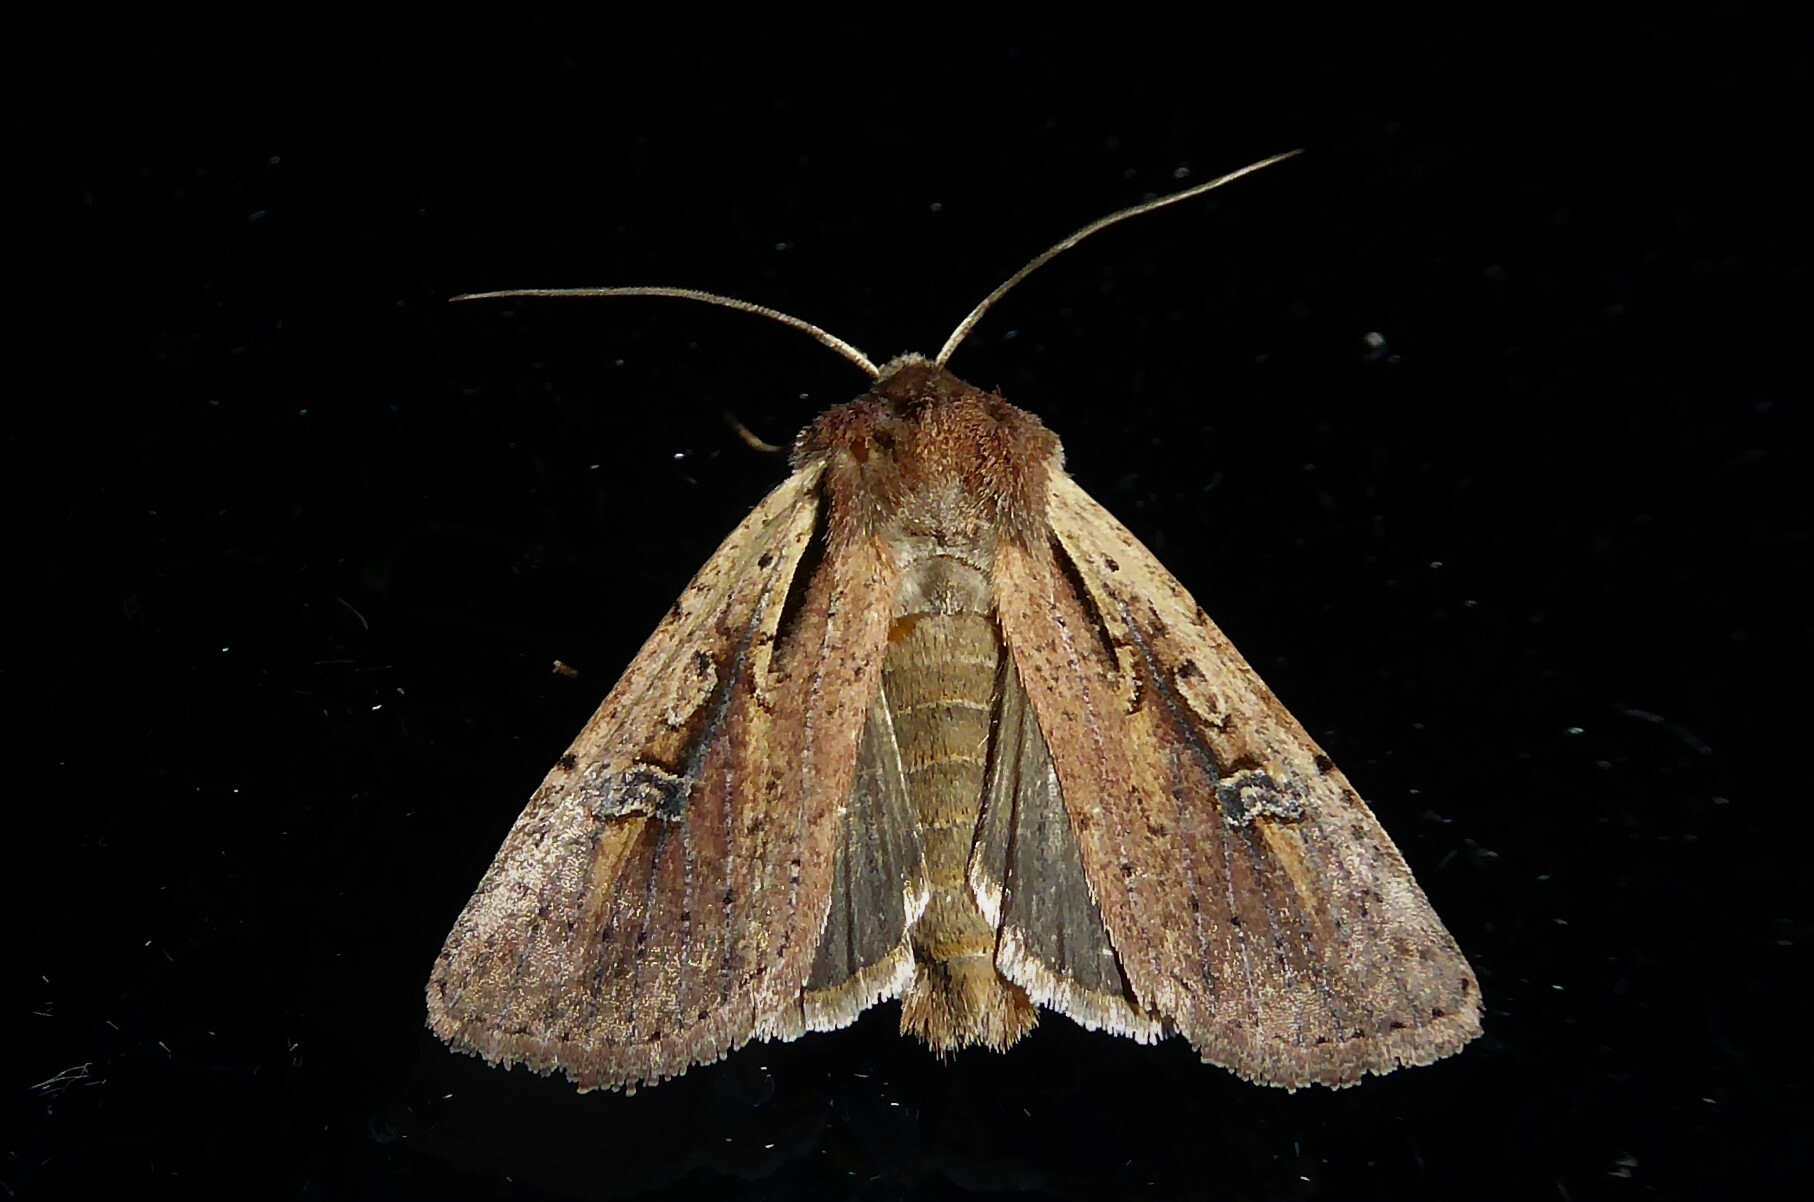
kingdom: Animalia
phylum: Arthropoda
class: Insecta
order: Lepidoptera
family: Noctuidae
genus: Ichneutica
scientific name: Ichneutica atristriga
